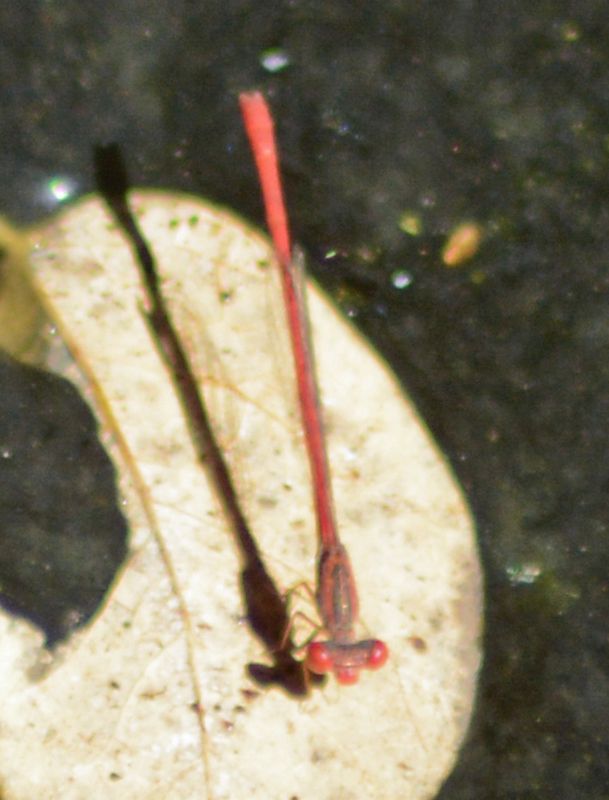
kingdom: Animalia
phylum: Arthropoda
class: Insecta
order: Odonata
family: Coenagrionidae
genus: Telebasis
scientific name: Telebasis salva
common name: Desert firetail
